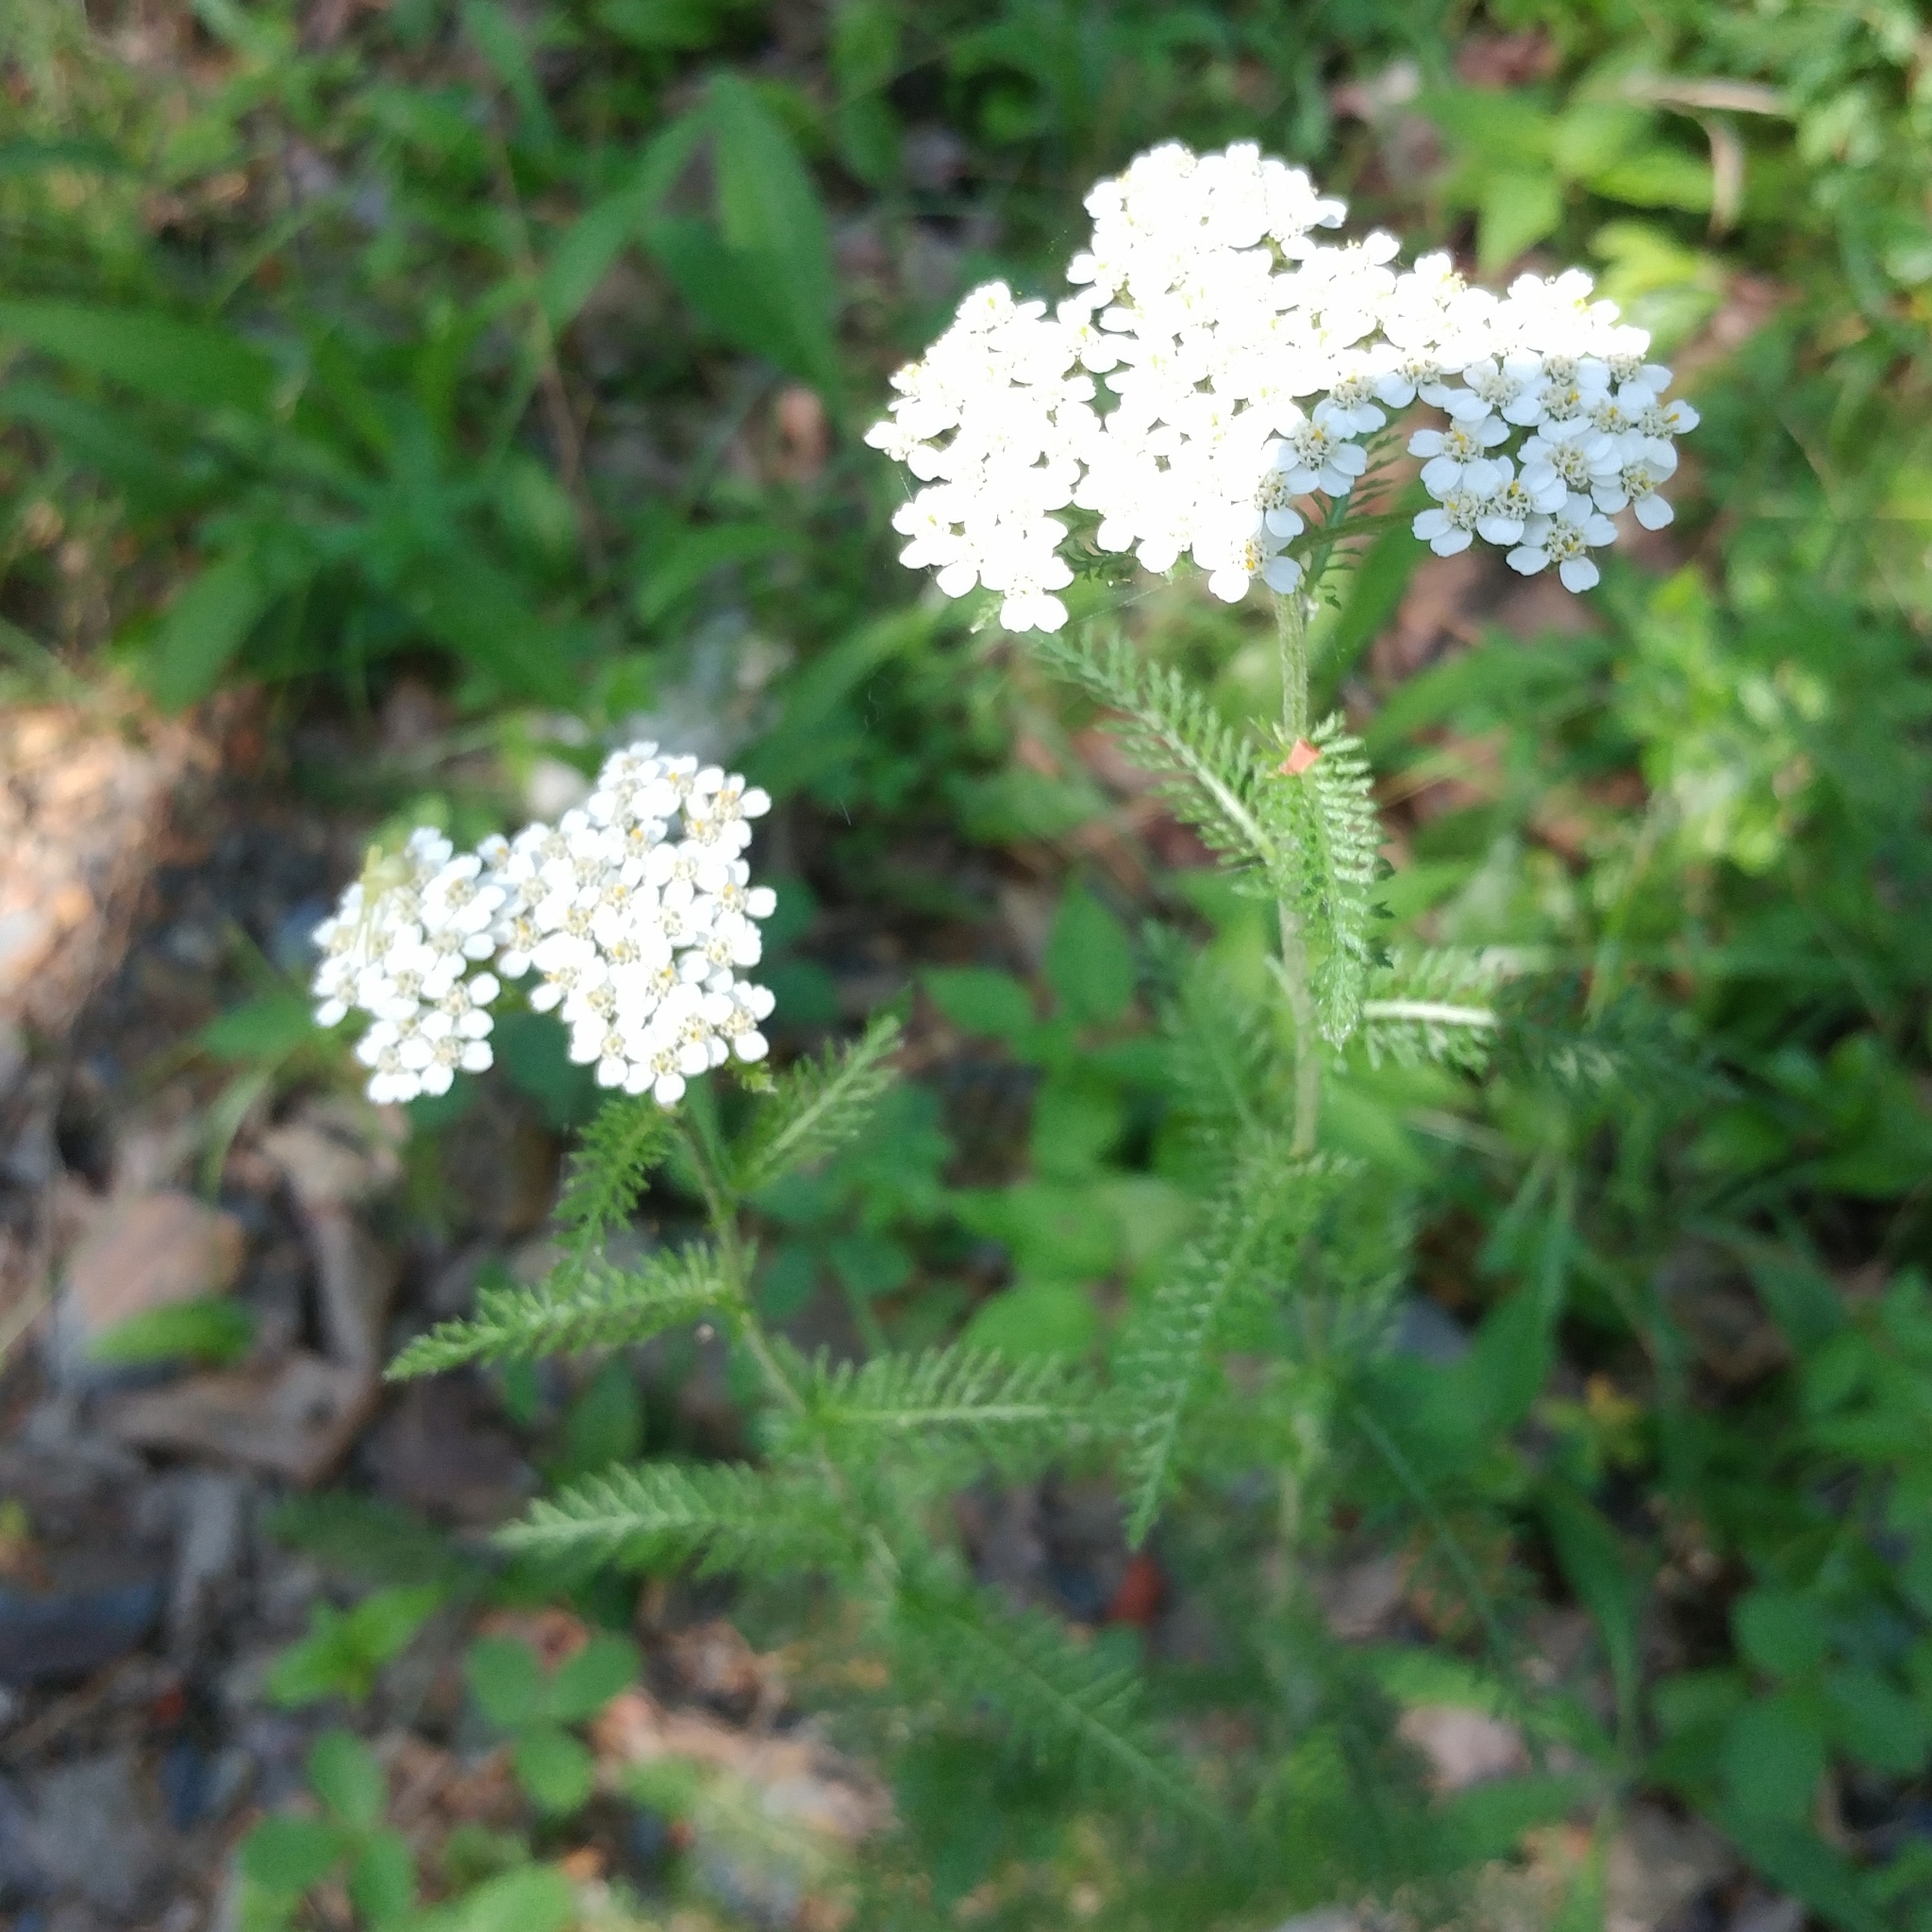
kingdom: Plantae
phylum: Tracheophyta
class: Magnoliopsida
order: Asterales
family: Asteraceae
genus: Achillea
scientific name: Achillea millefolium
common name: Yarrow
